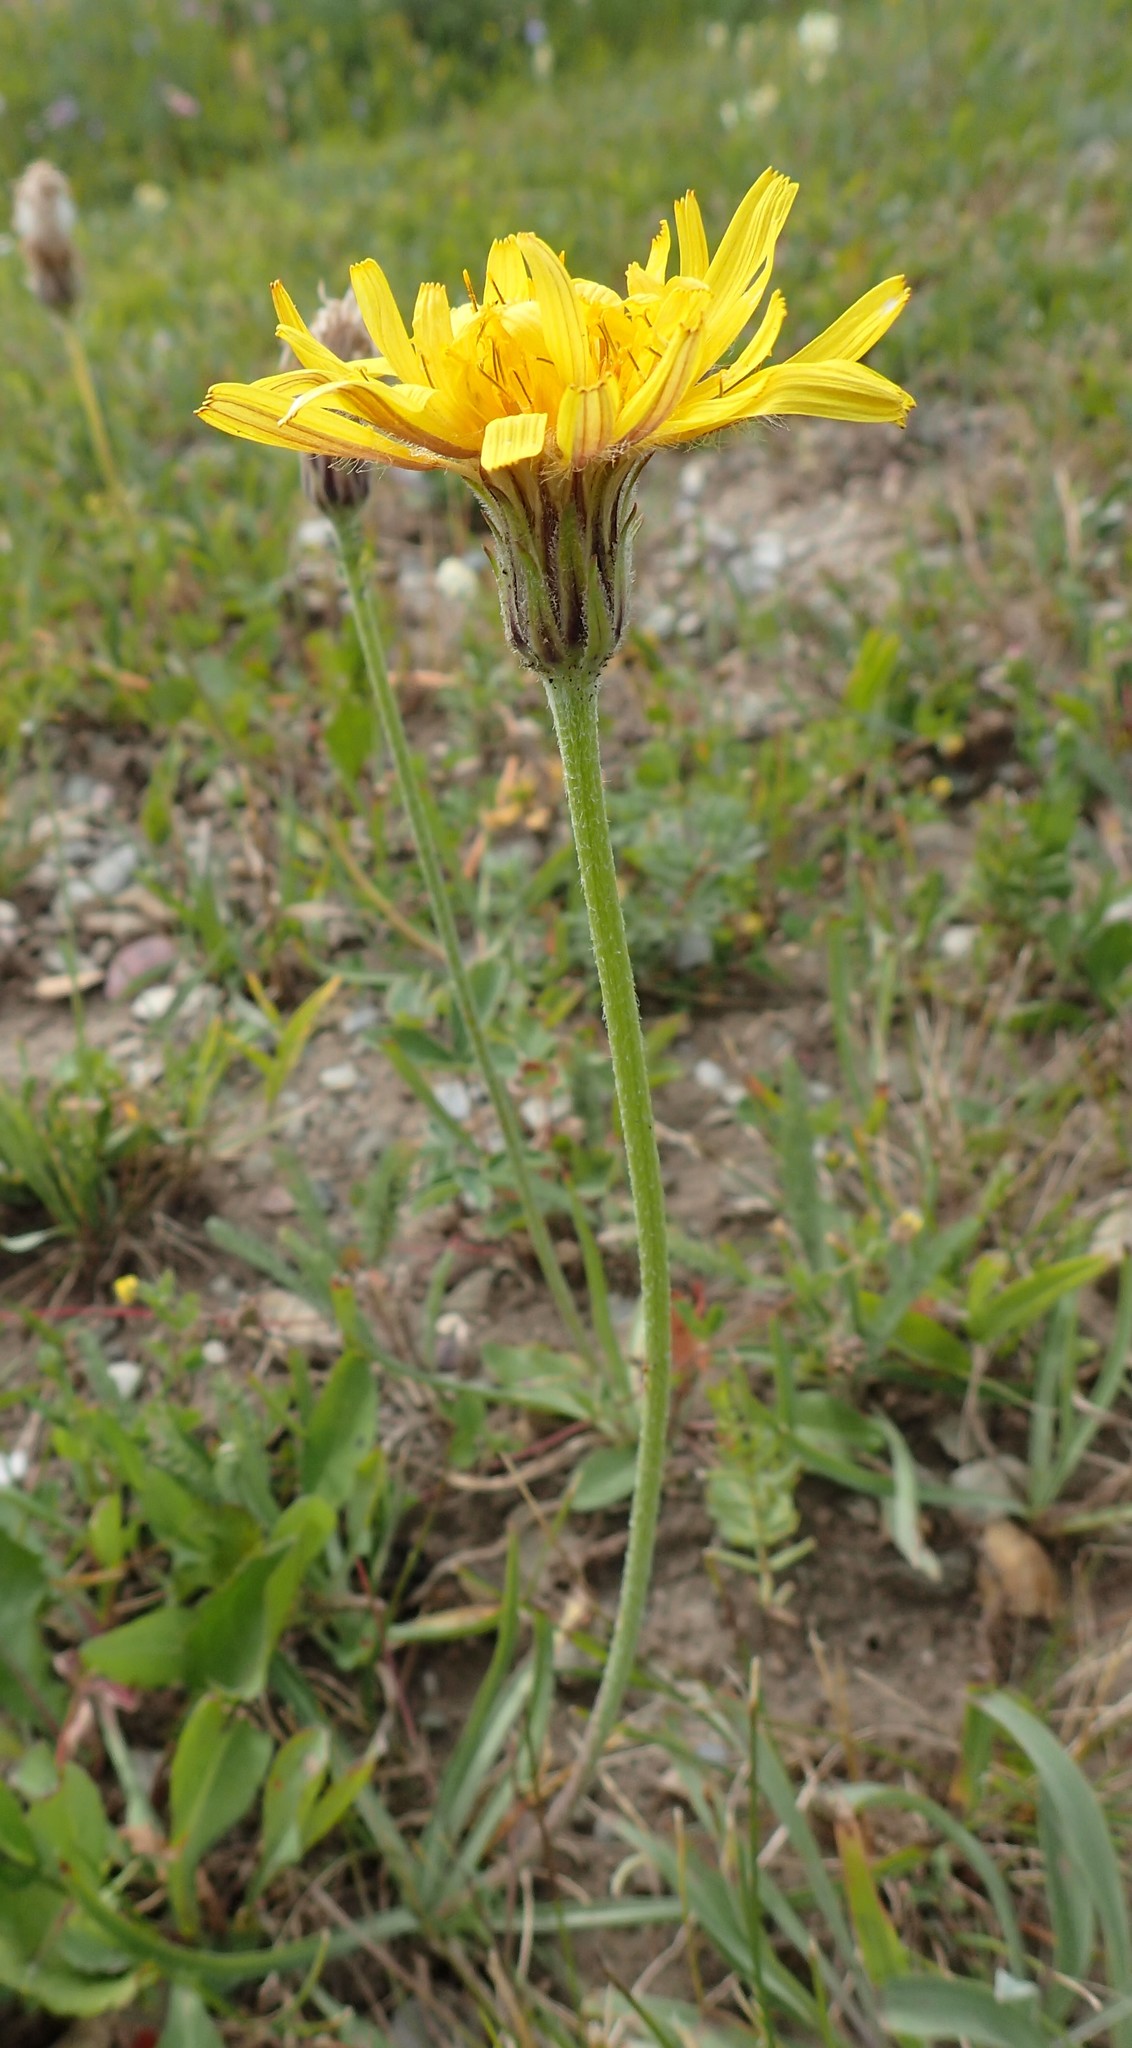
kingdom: Plantae
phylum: Tracheophyta
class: Magnoliopsida
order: Asterales
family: Asteraceae
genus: Agoseris
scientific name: Agoseris glauca
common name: Prairie agoseris
